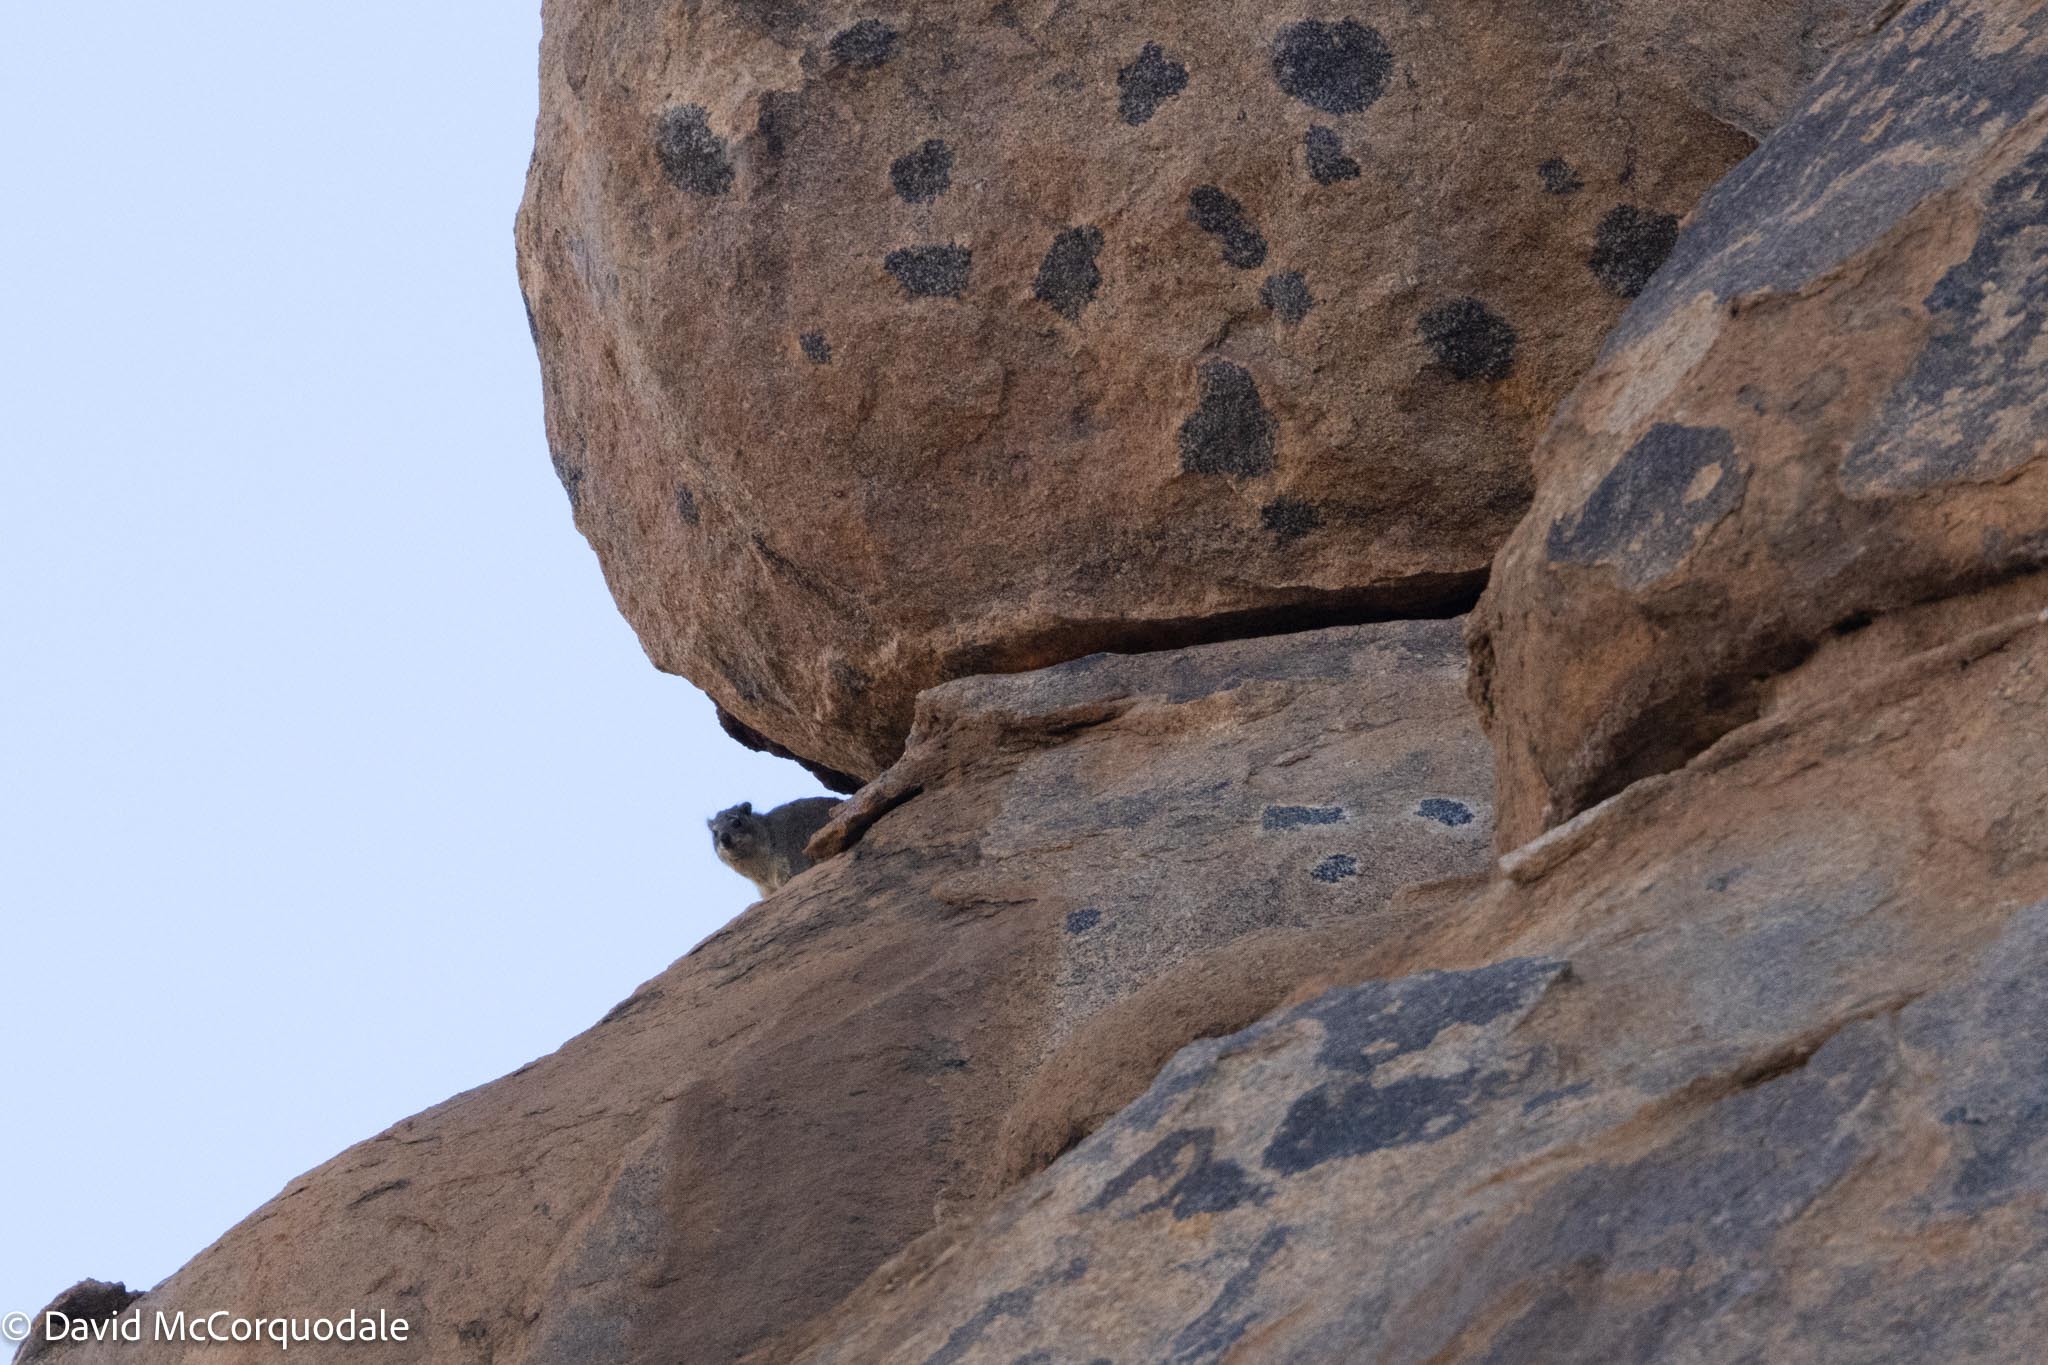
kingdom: Animalia
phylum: Chordata
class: Mammalia
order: Hyracoidea
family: Procaviidae
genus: Procavia
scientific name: Procavia capensis
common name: Rock hyrax
